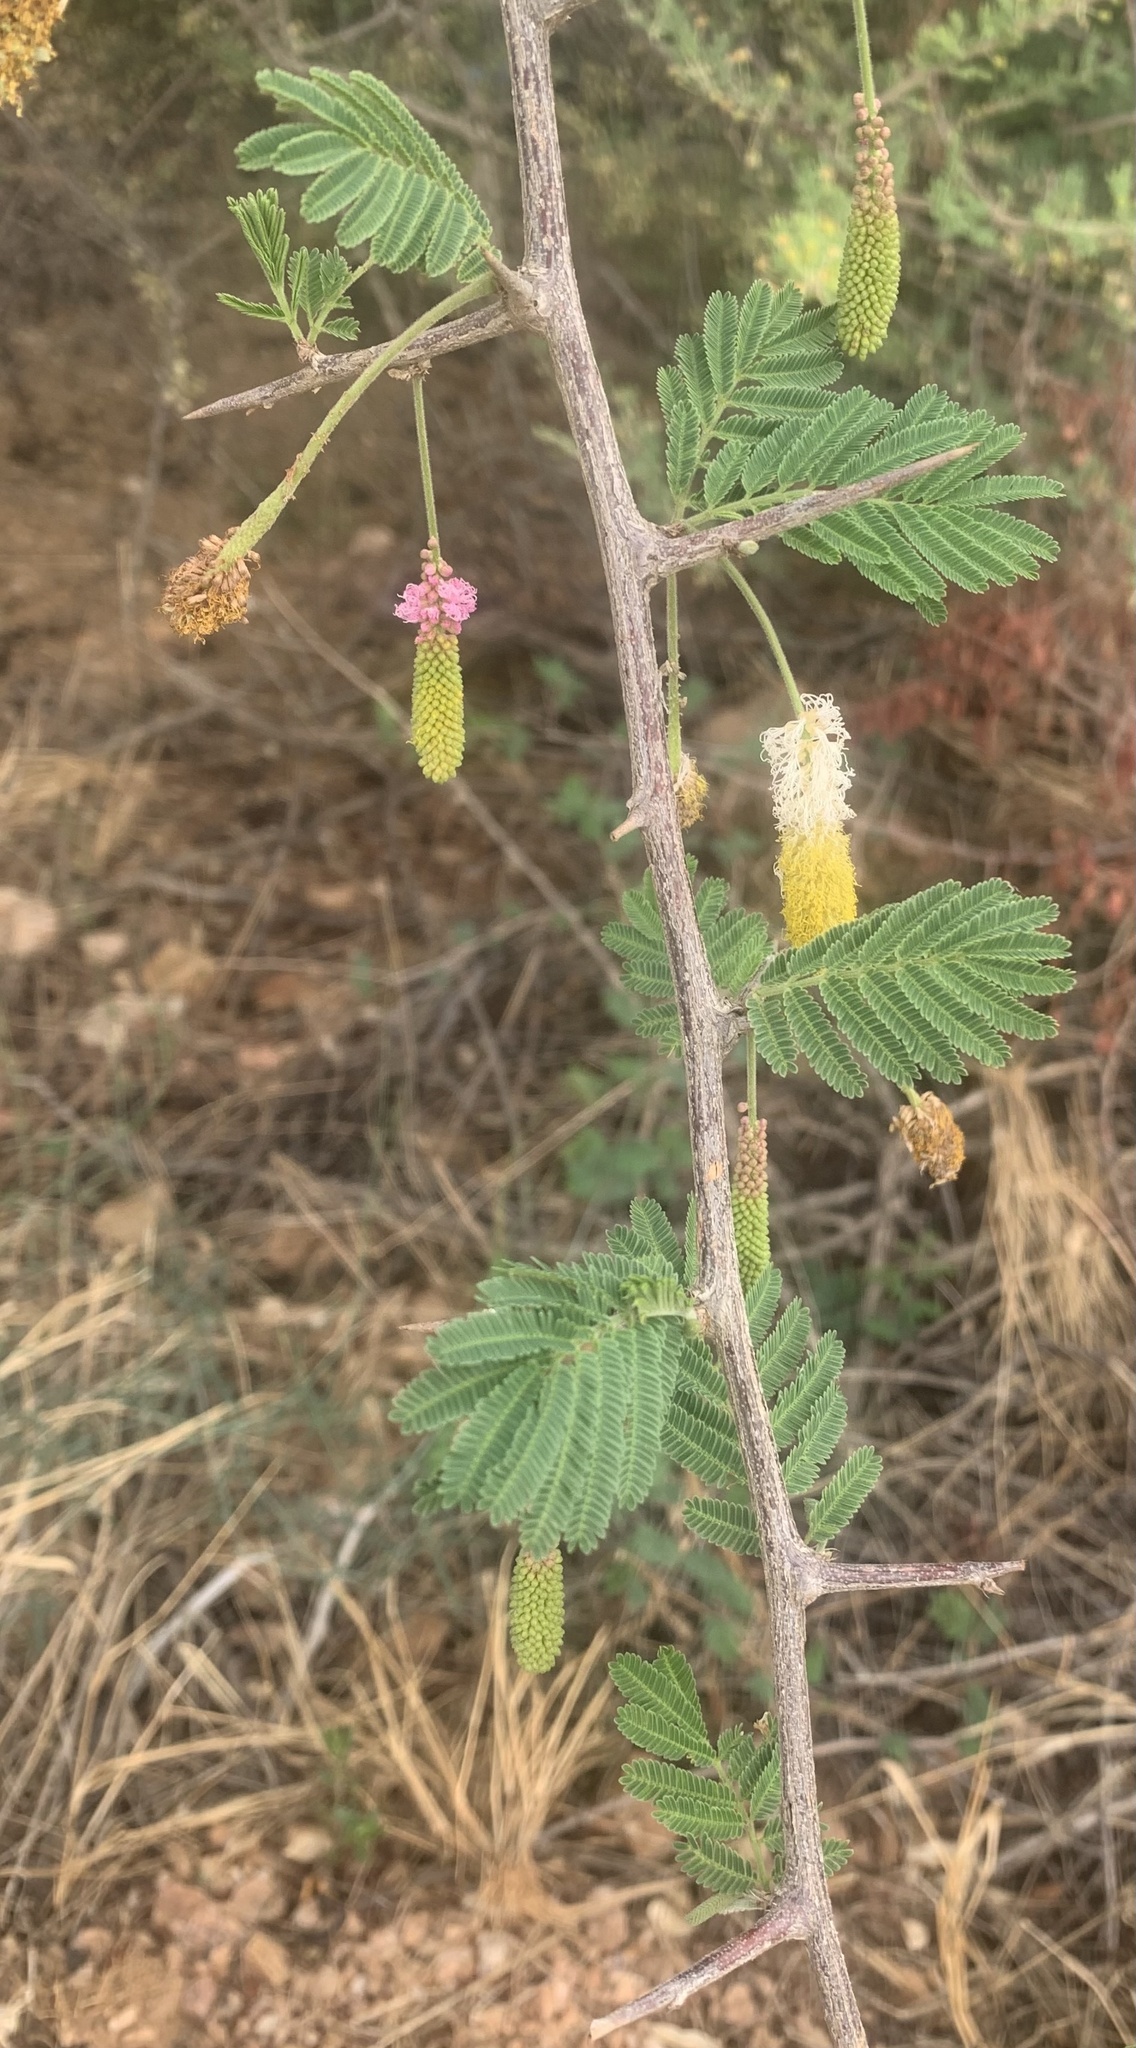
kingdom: Plantae
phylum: Tracheophyta
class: Magnoliopsida
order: Fabales
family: Fabaceae
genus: Dichrostachys
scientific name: Dichrostachys cinerea
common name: Sicklebush
